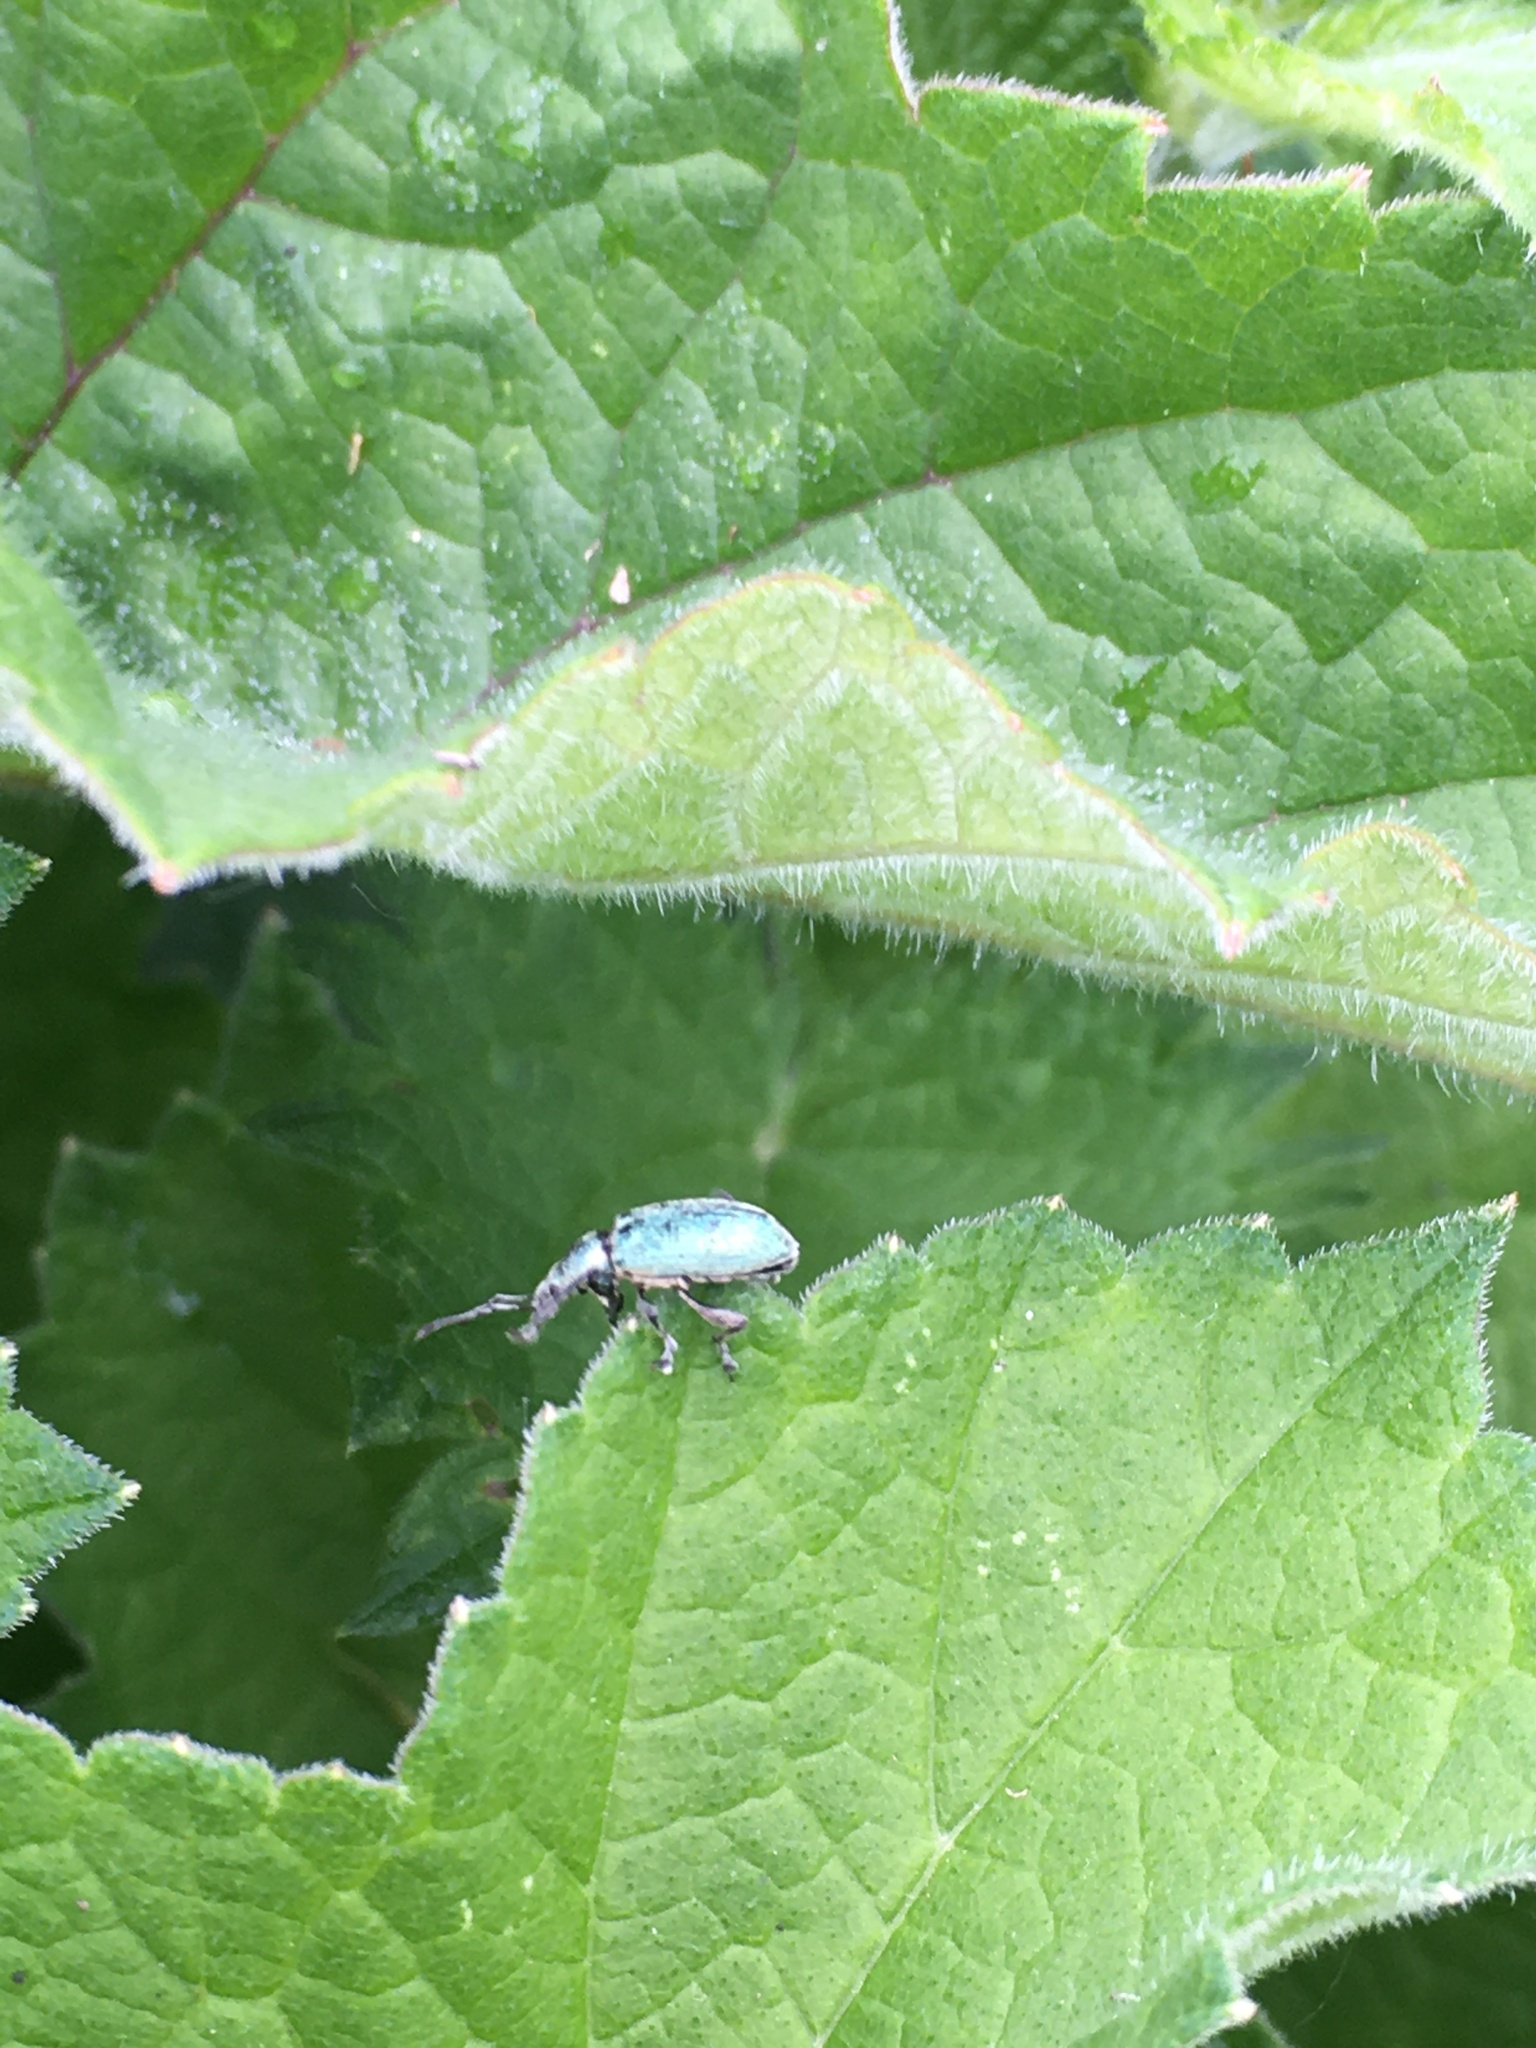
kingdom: Animalia
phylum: Arthropoda
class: Insecta
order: Coleoptera
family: Curculionidae
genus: Phyllobius
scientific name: Phyllobius pomaceus
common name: Green nettle weevil
